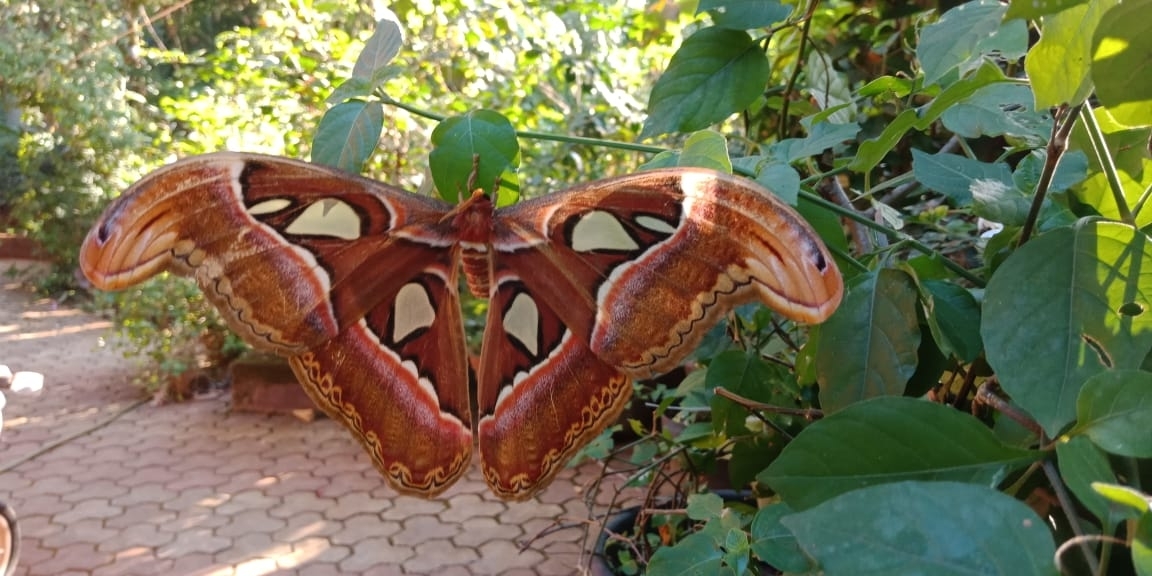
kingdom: Animalia
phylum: Arthropoda
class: Insecta
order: Lepidoptera
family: Saturniidae
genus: Attacus
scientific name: Attacus taprobanis
